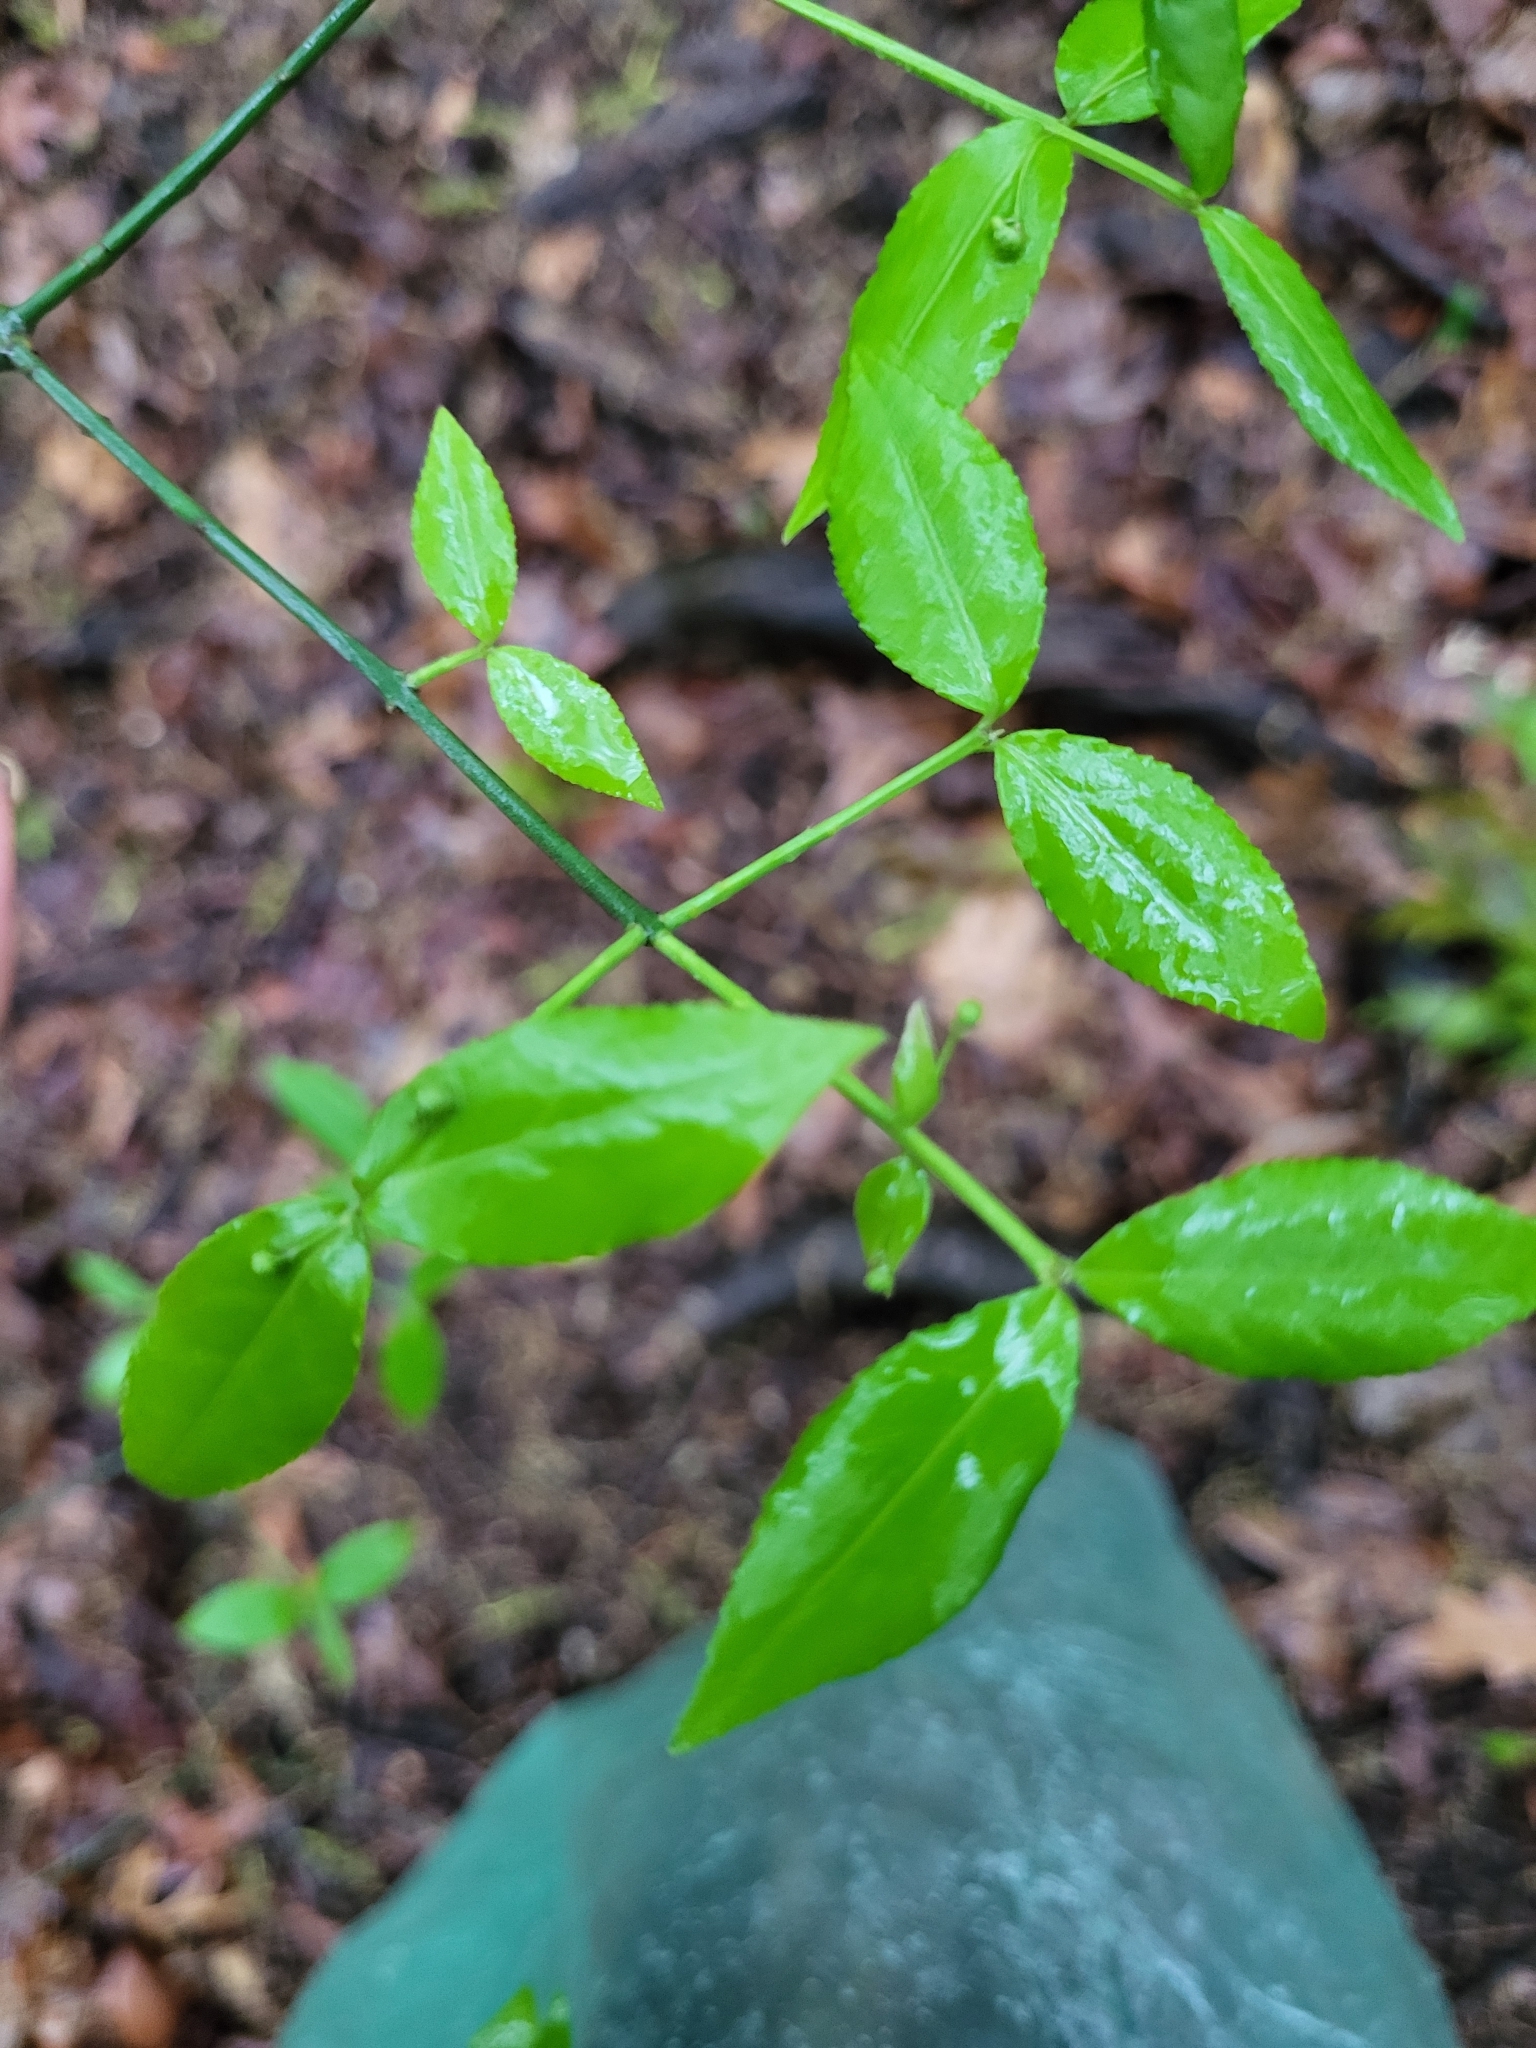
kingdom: Plantae
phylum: Tracheophyta
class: Magnoliopsida
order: Celastrales
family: Celastraceae
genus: Euonymus
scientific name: Euonymus americanus
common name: Bursting-heart
